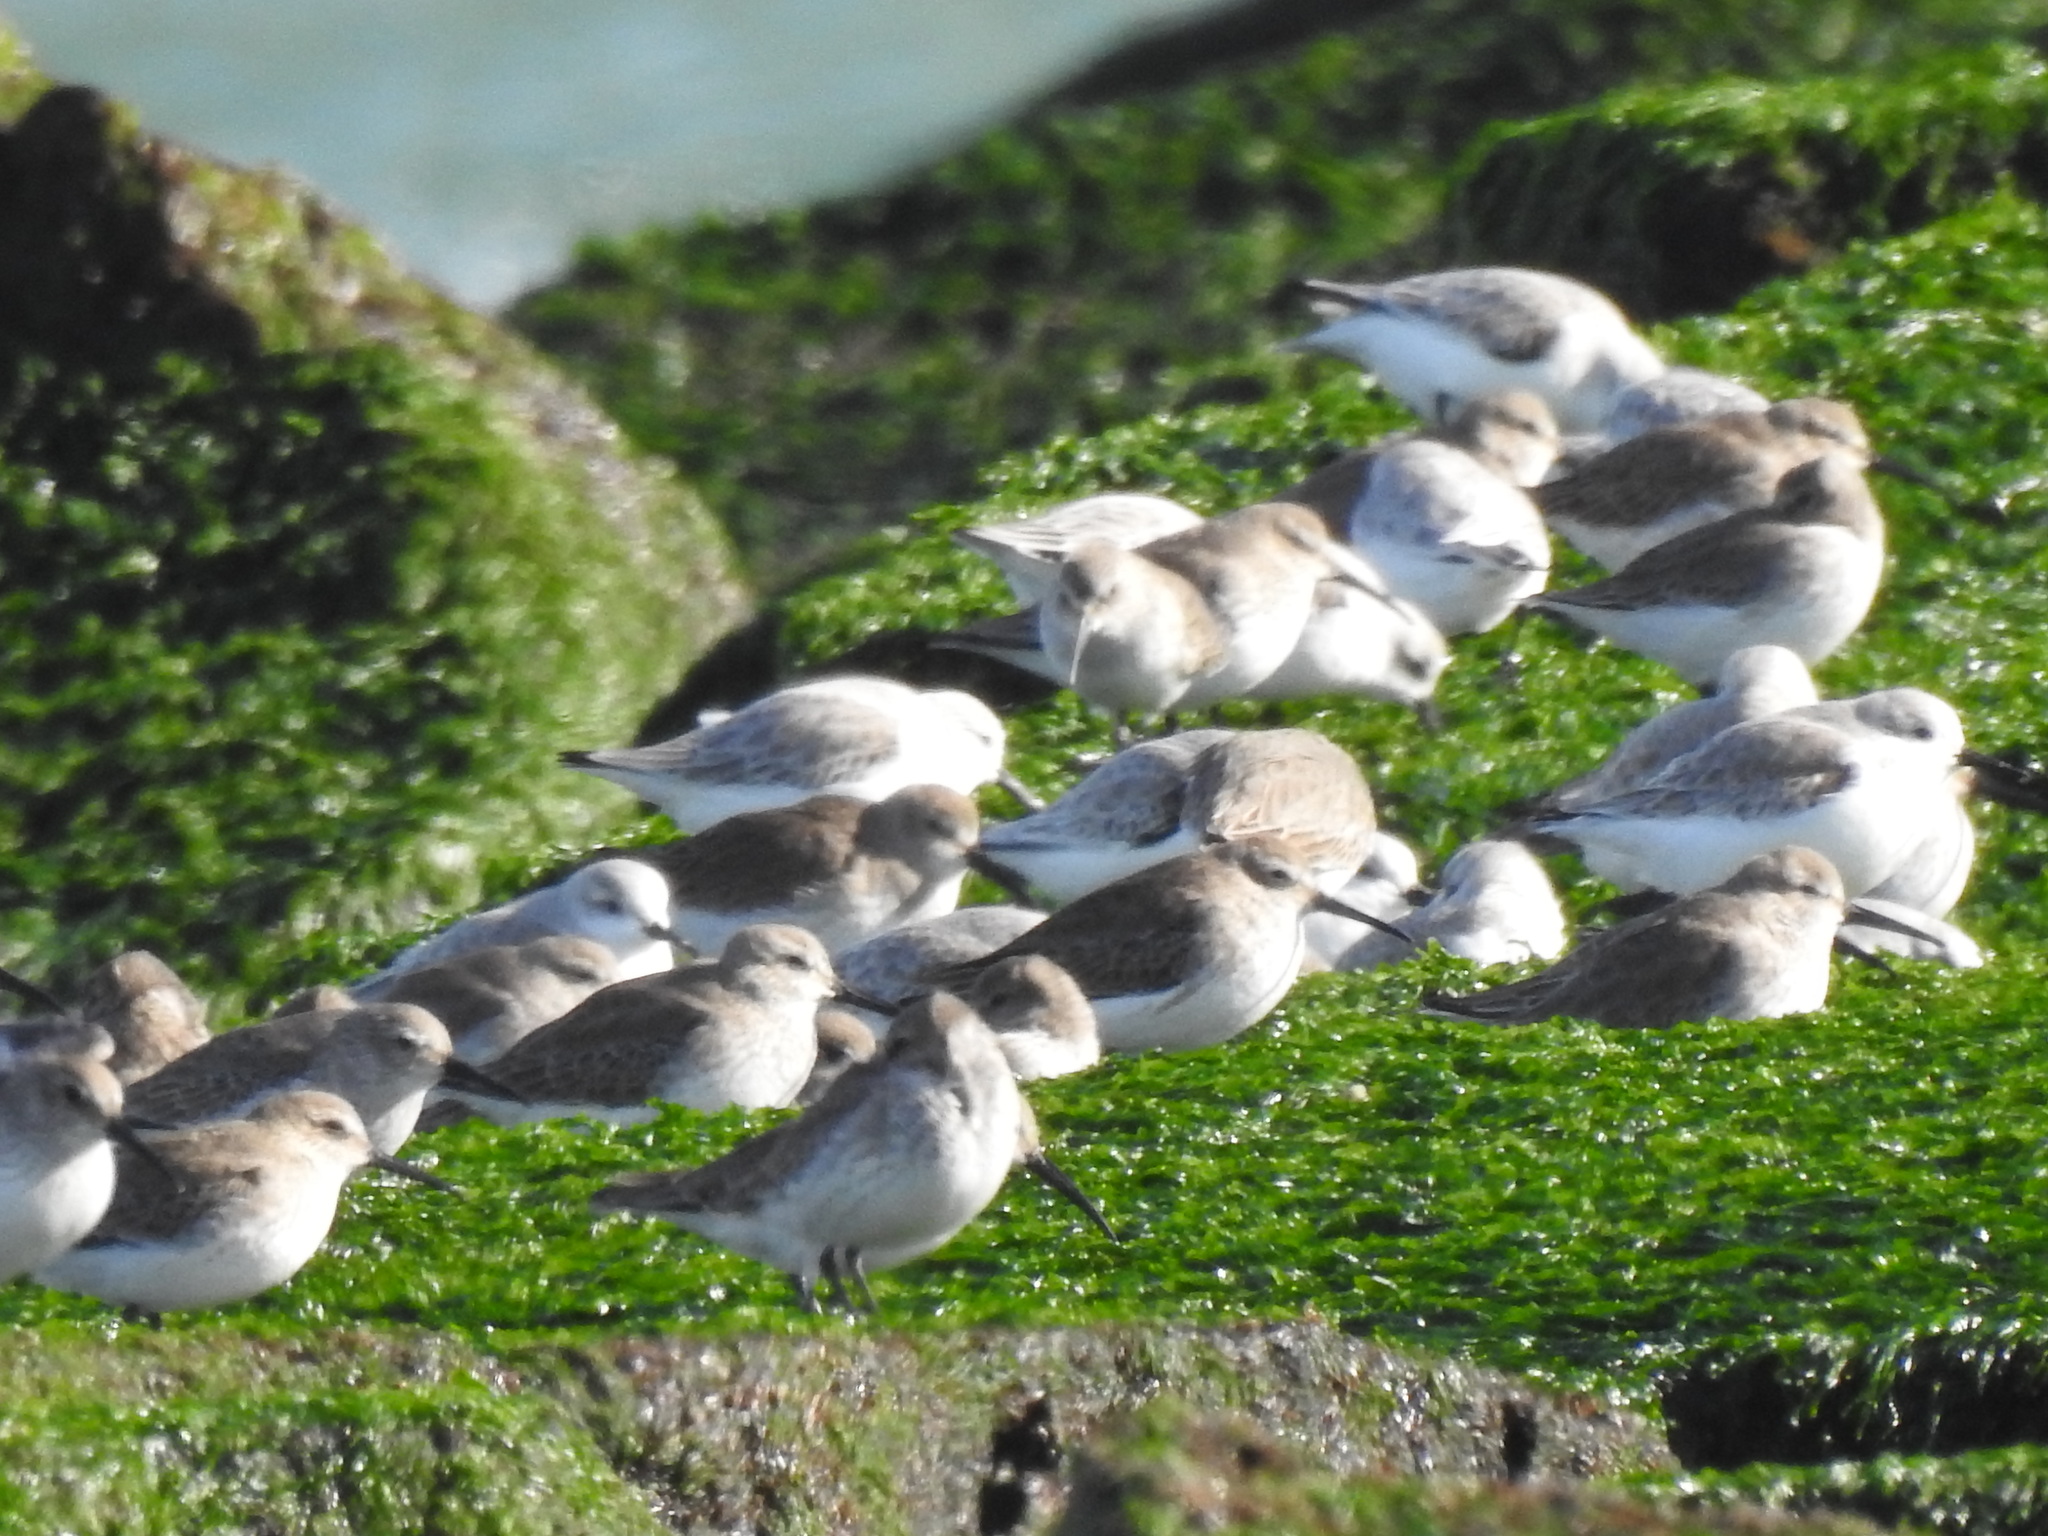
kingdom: Animalia
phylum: Chordata
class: Aves
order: Charadriiformes
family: Scolopacidae
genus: Calidris
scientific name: Calidris alpina
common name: Dunlin
